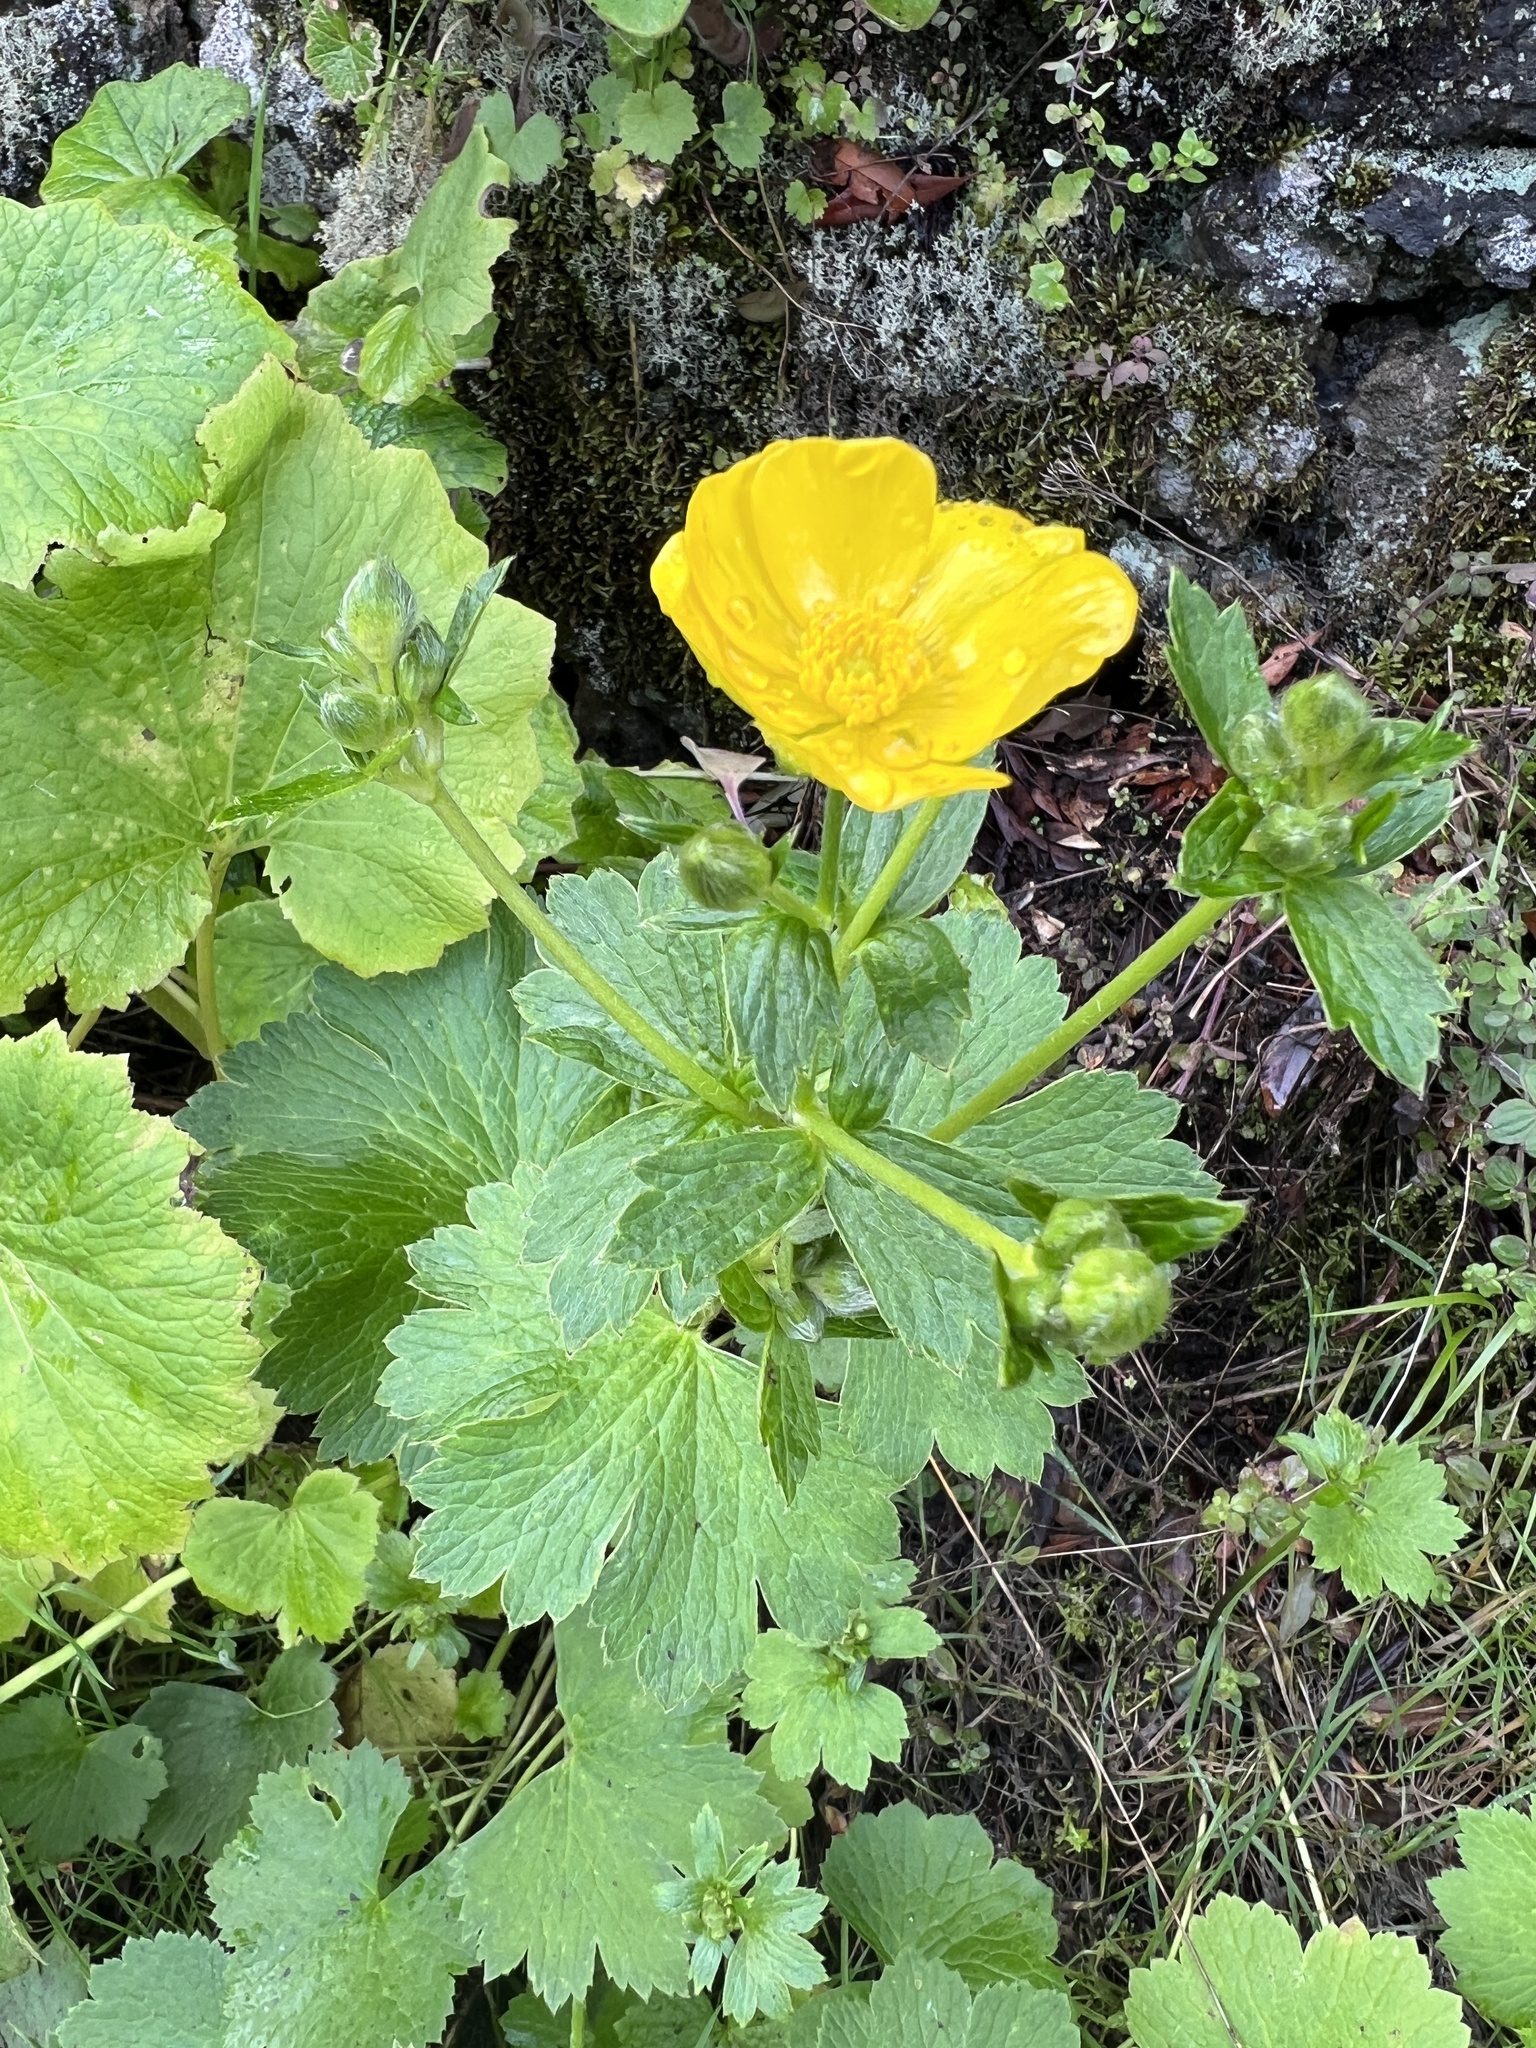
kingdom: Plantae
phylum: Tracheophyta
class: Magnoliopsida
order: Ranunculales
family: Ranunculaceae
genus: Ranunculus
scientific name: Ranunculus cortusifolius
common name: Azores buttercup
